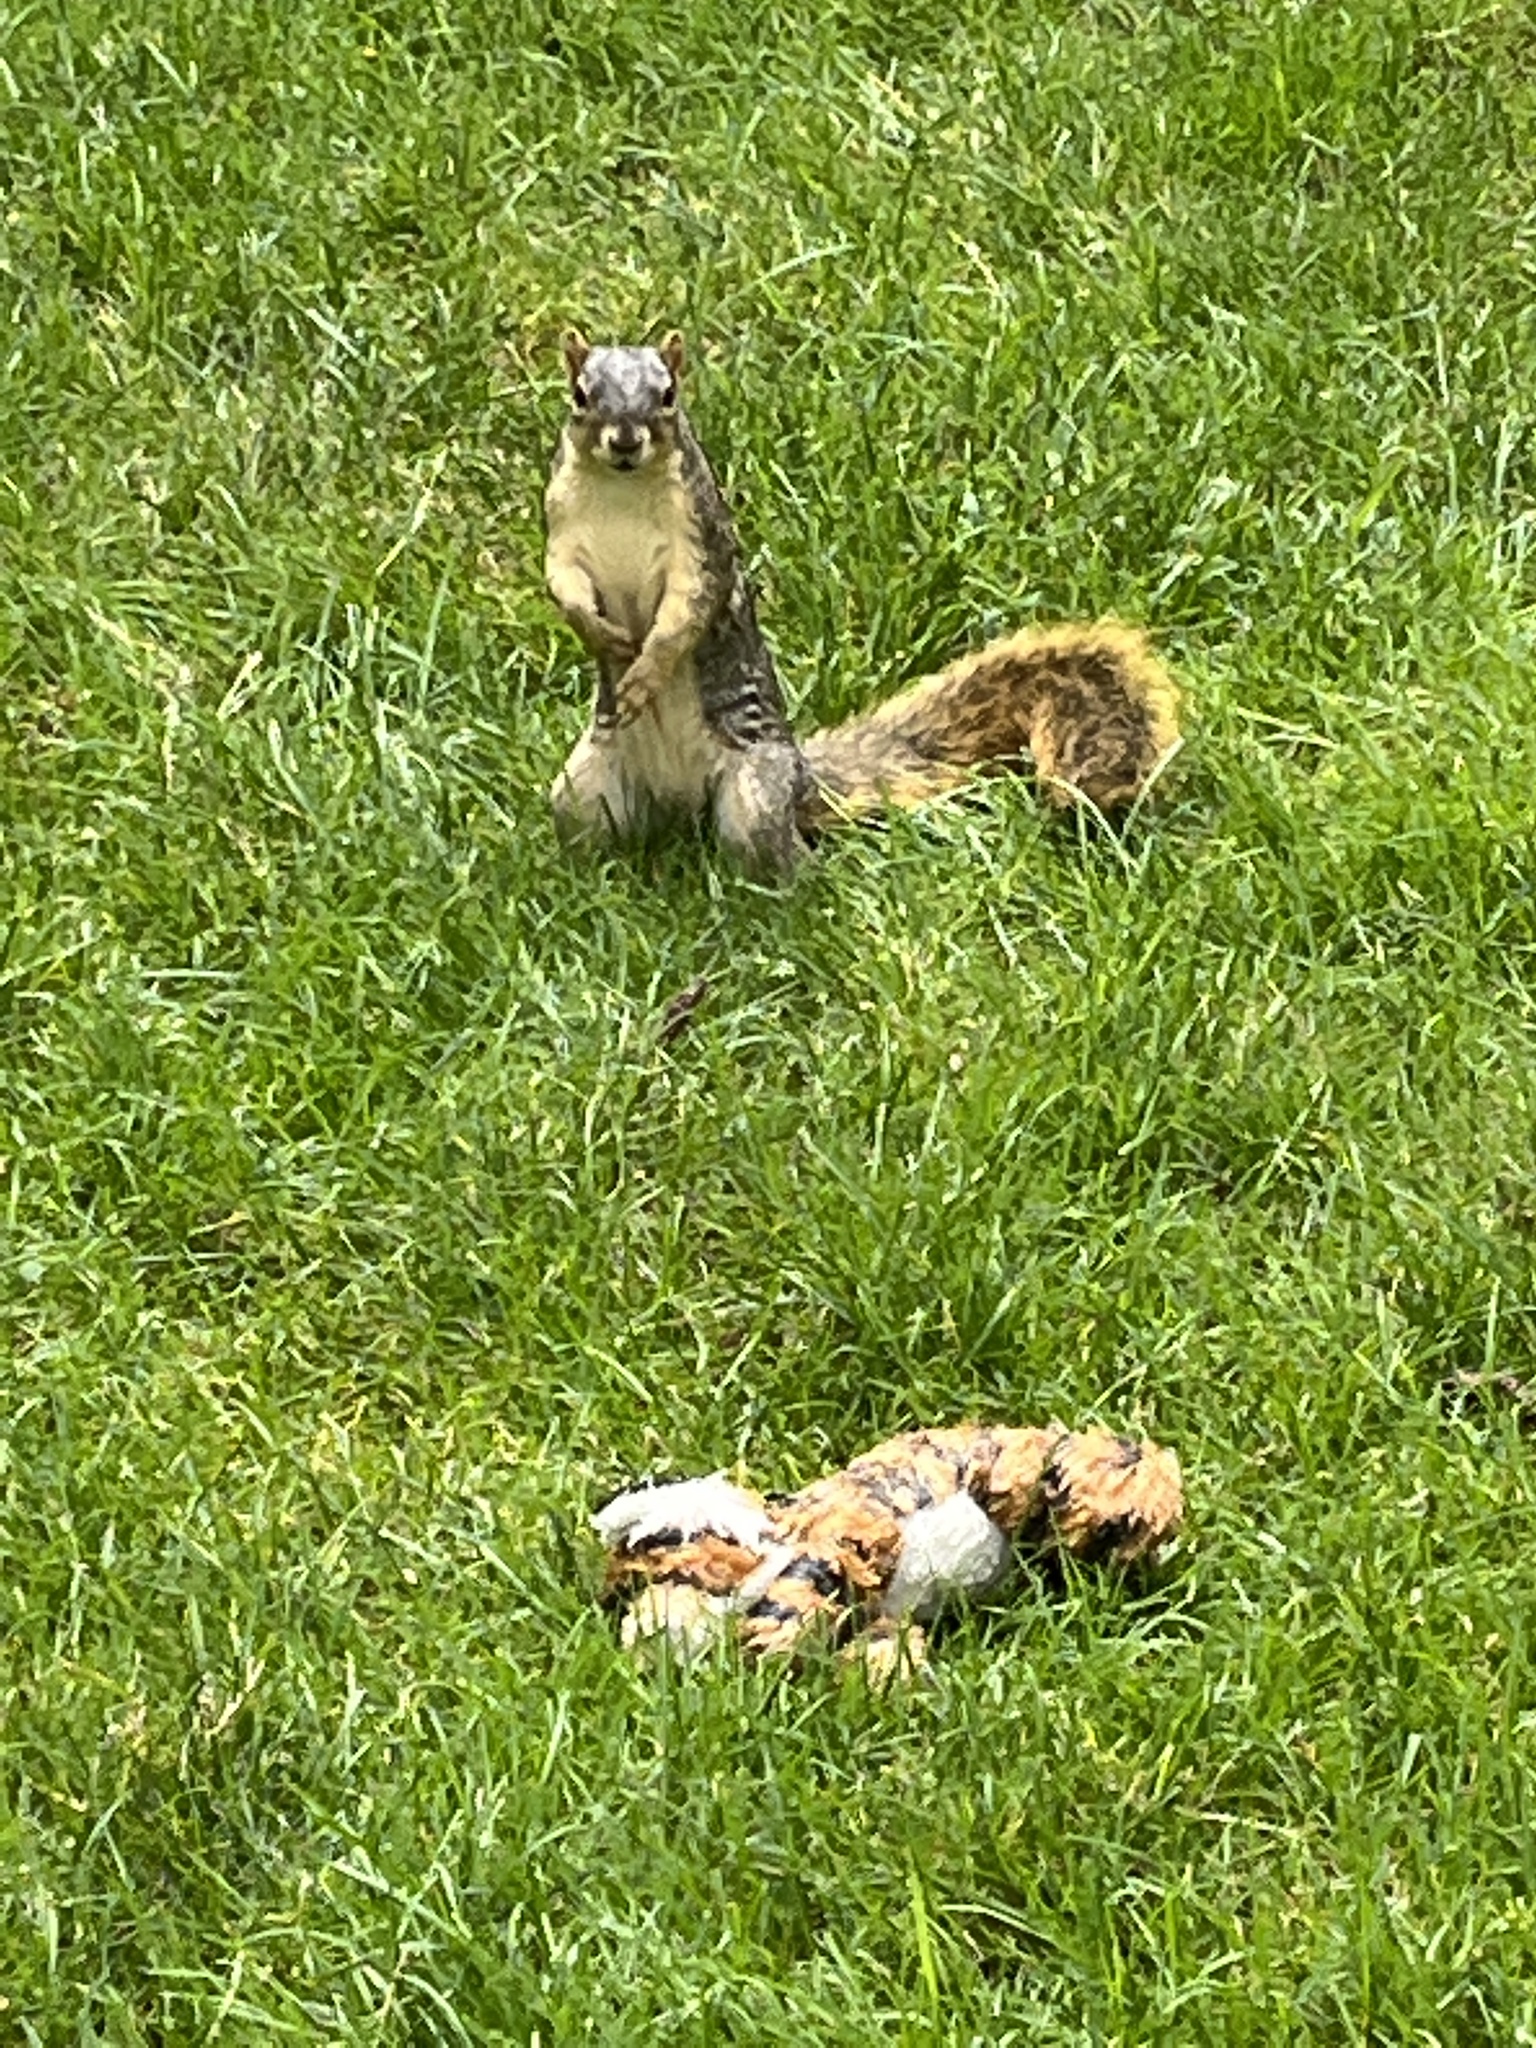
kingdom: Animalia
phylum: Chordata
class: Mammalia
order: Rodentia
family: Sciuridae
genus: Sciurus
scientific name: Sciurus niger
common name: Fox squirrel
